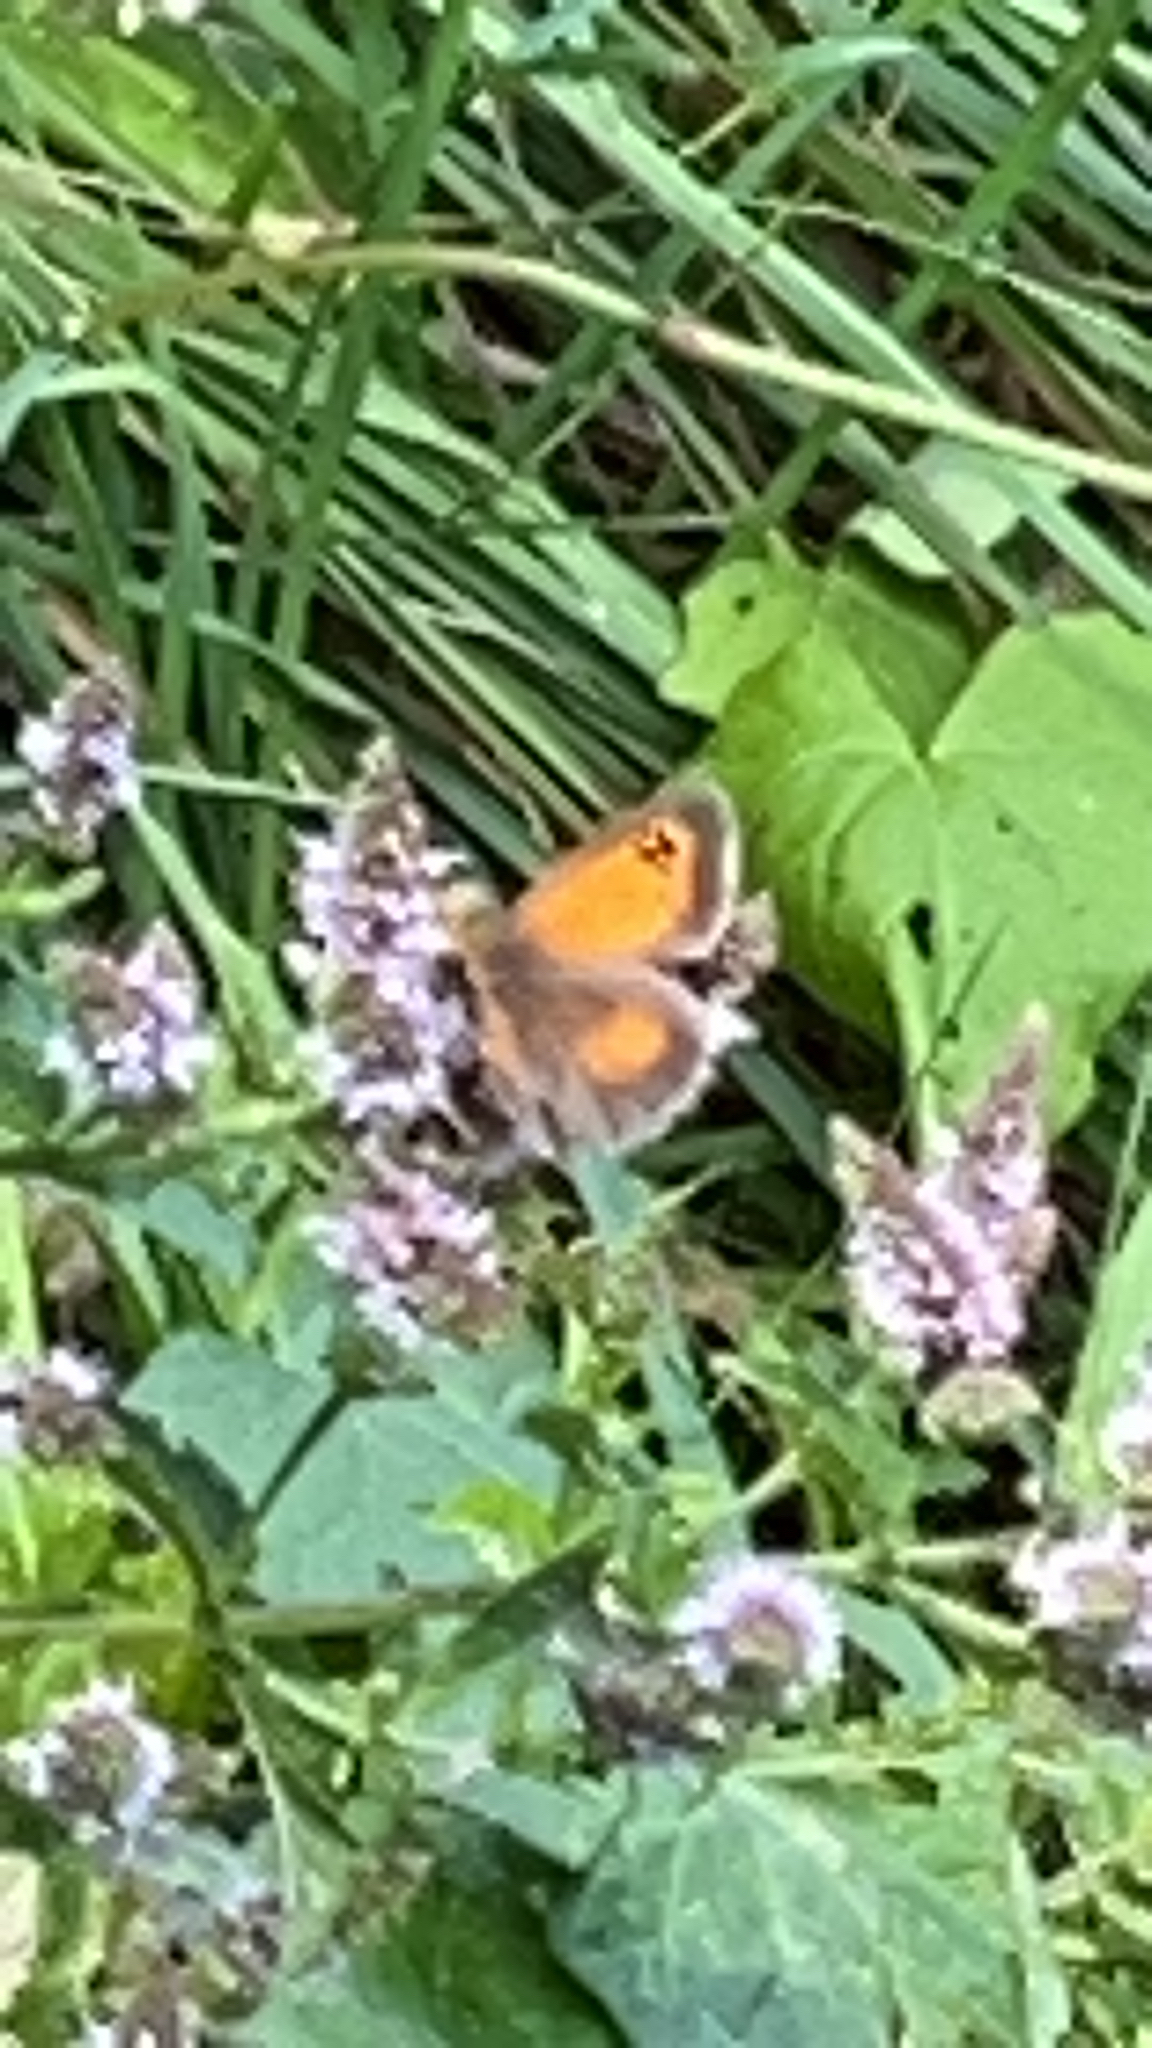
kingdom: Animalia
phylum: Arthropoda
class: Insecta
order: Lepidoptera
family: Nymphalidae
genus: Pyronia
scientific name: Pyronia tithonus
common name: Gatekeeper
